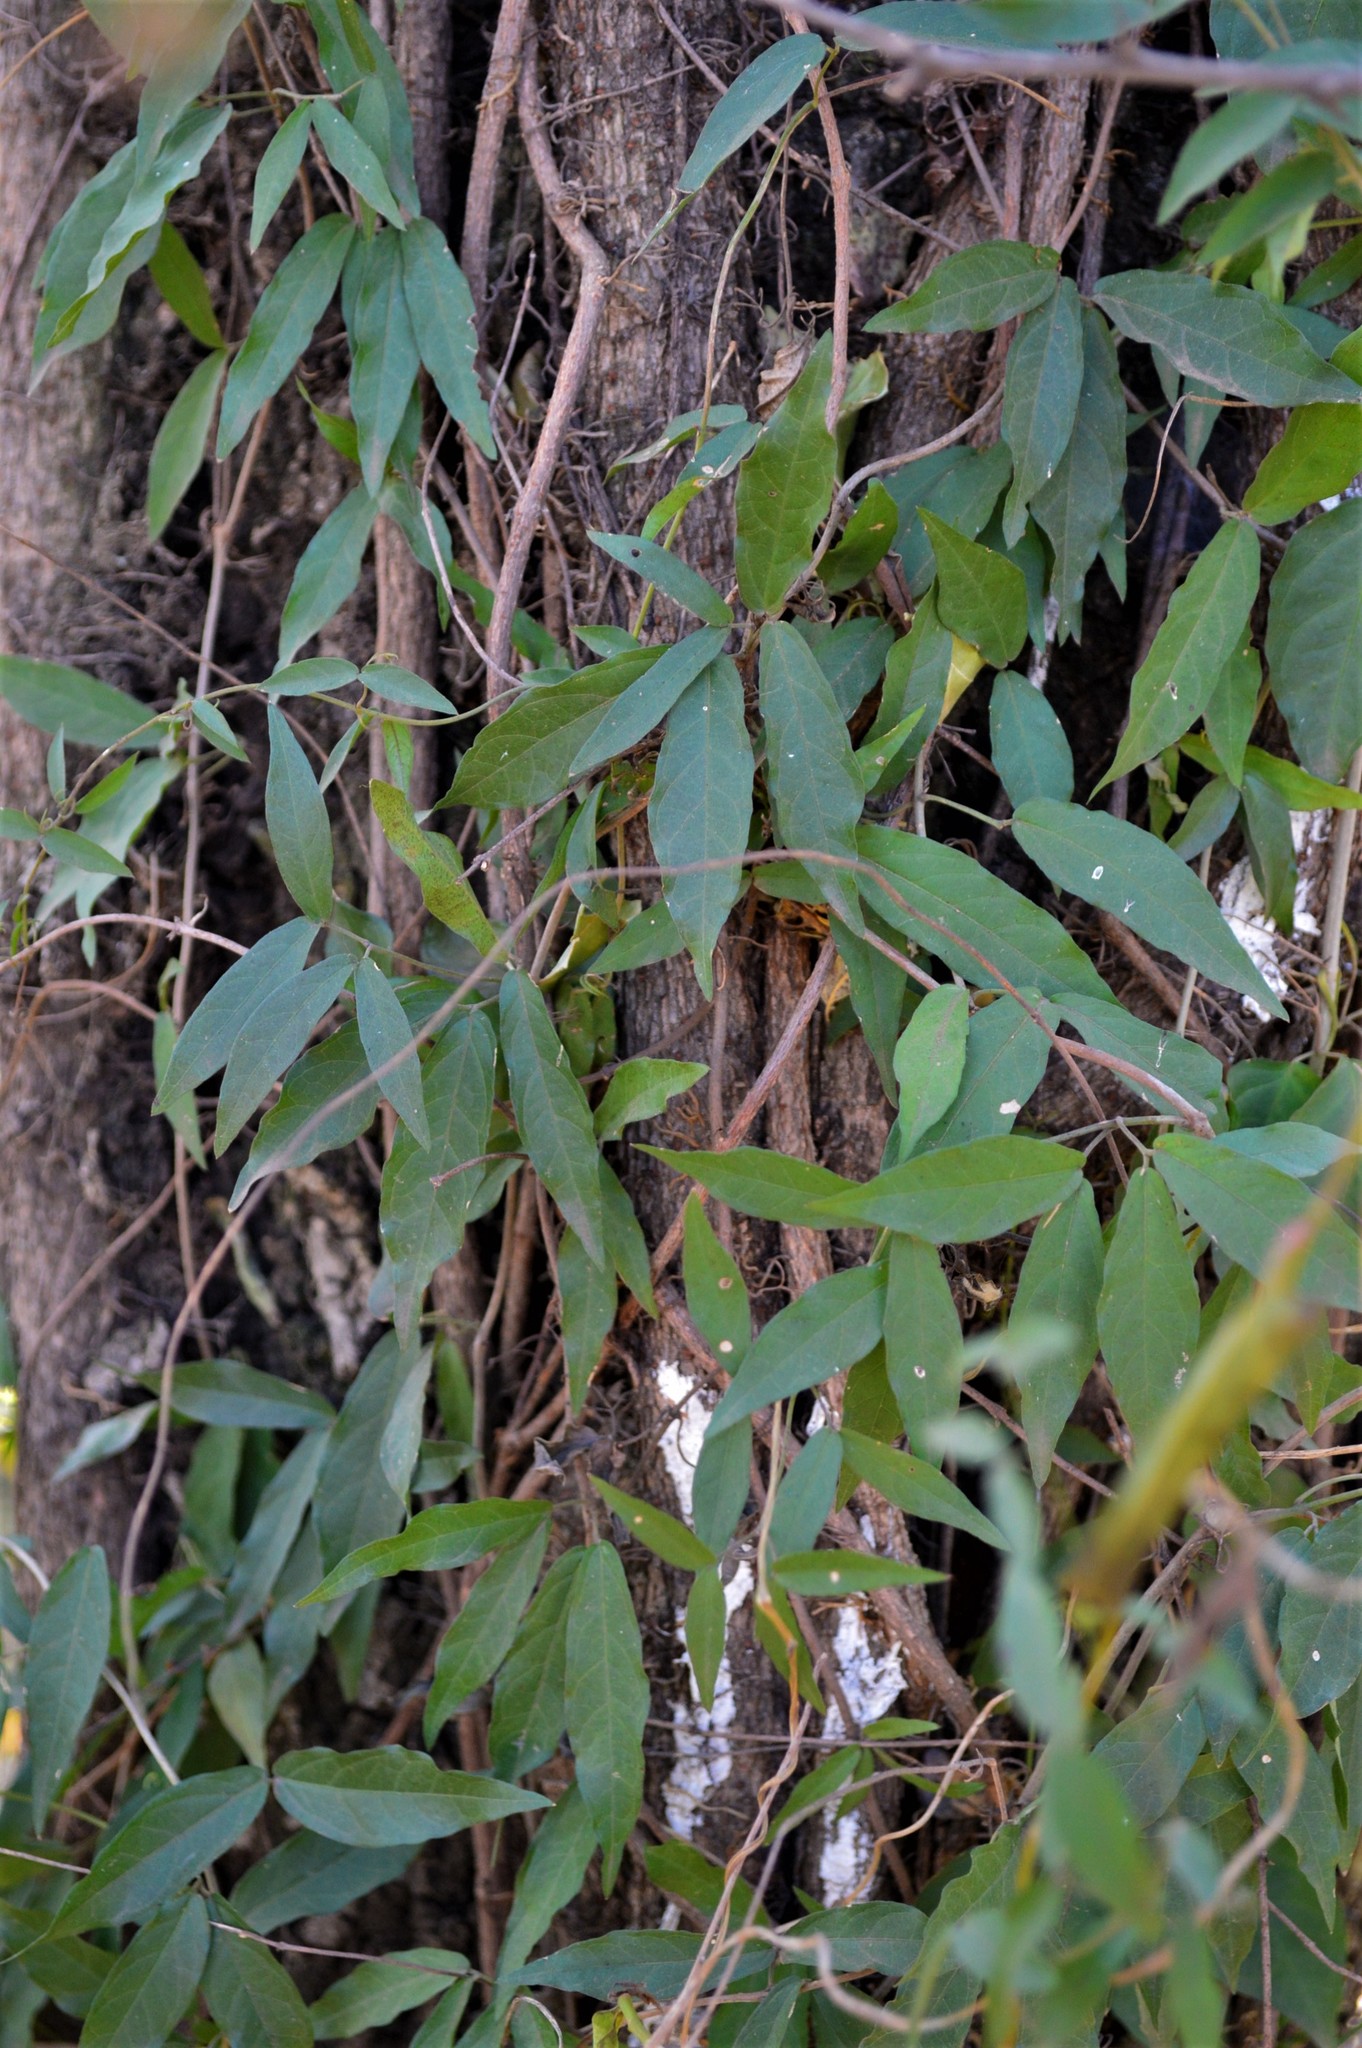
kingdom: Plantae
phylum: Tracheophyta
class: Magnoliopsida
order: Lamiales
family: Bignoniaceae
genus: Dolichandra
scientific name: Dolichandra unguis-cati
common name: Catclaw vine
